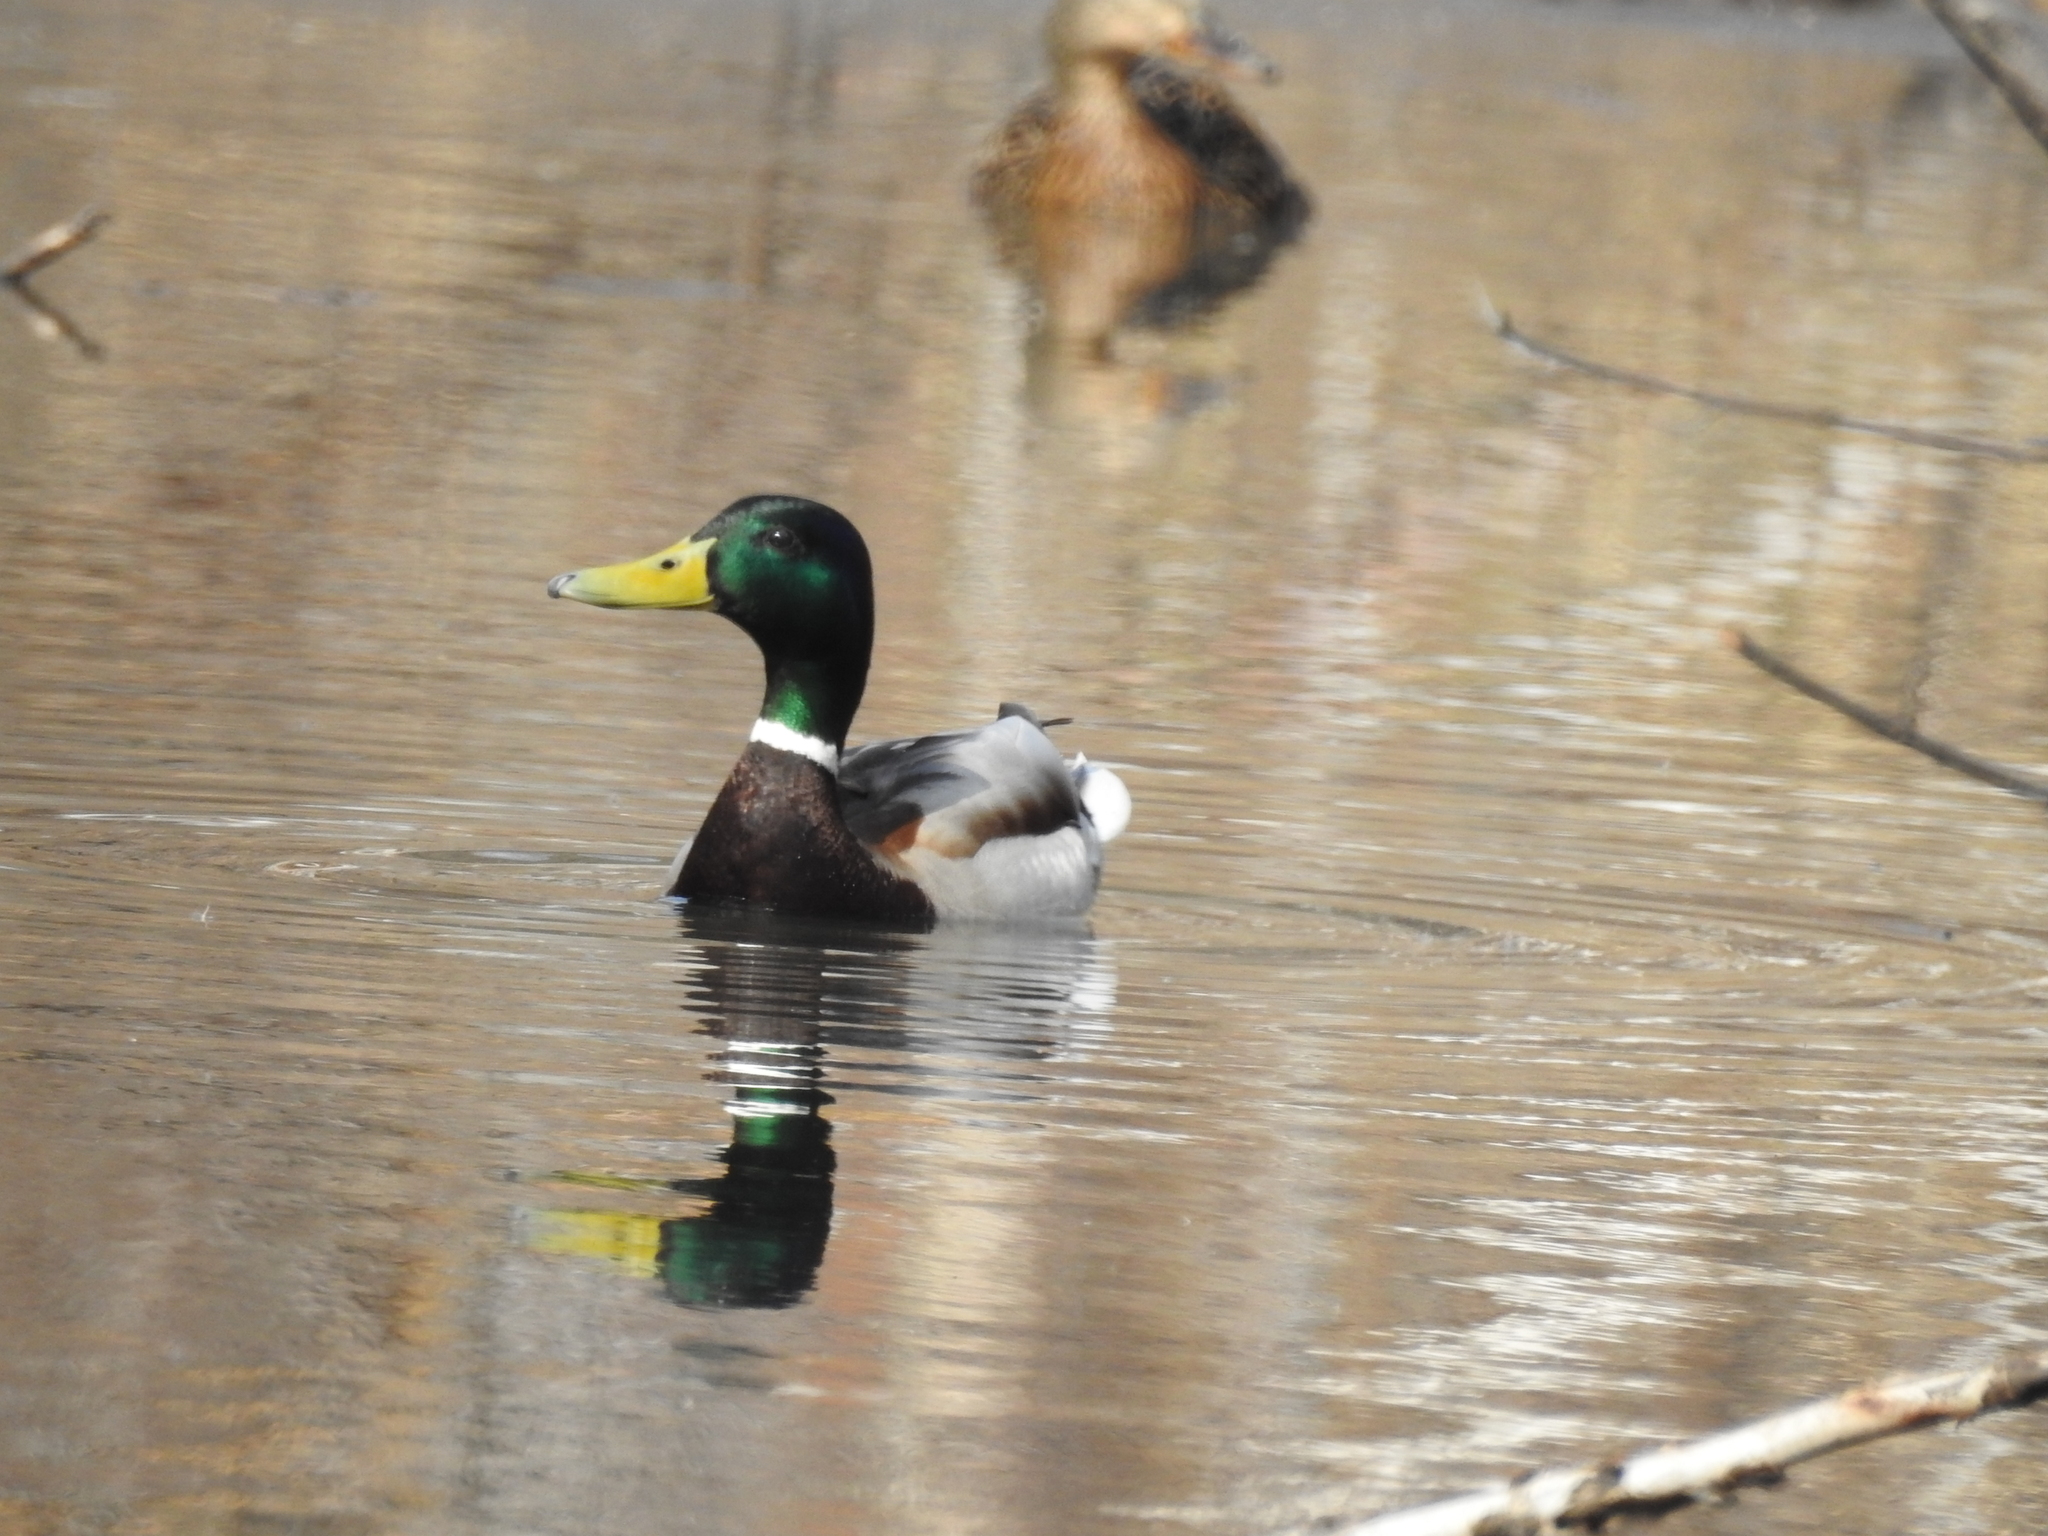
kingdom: Animalia
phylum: Chordata
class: Aves
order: Anseriformes
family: Anatidae
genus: Anas
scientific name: Anas platyrhynchos
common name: Mallard
